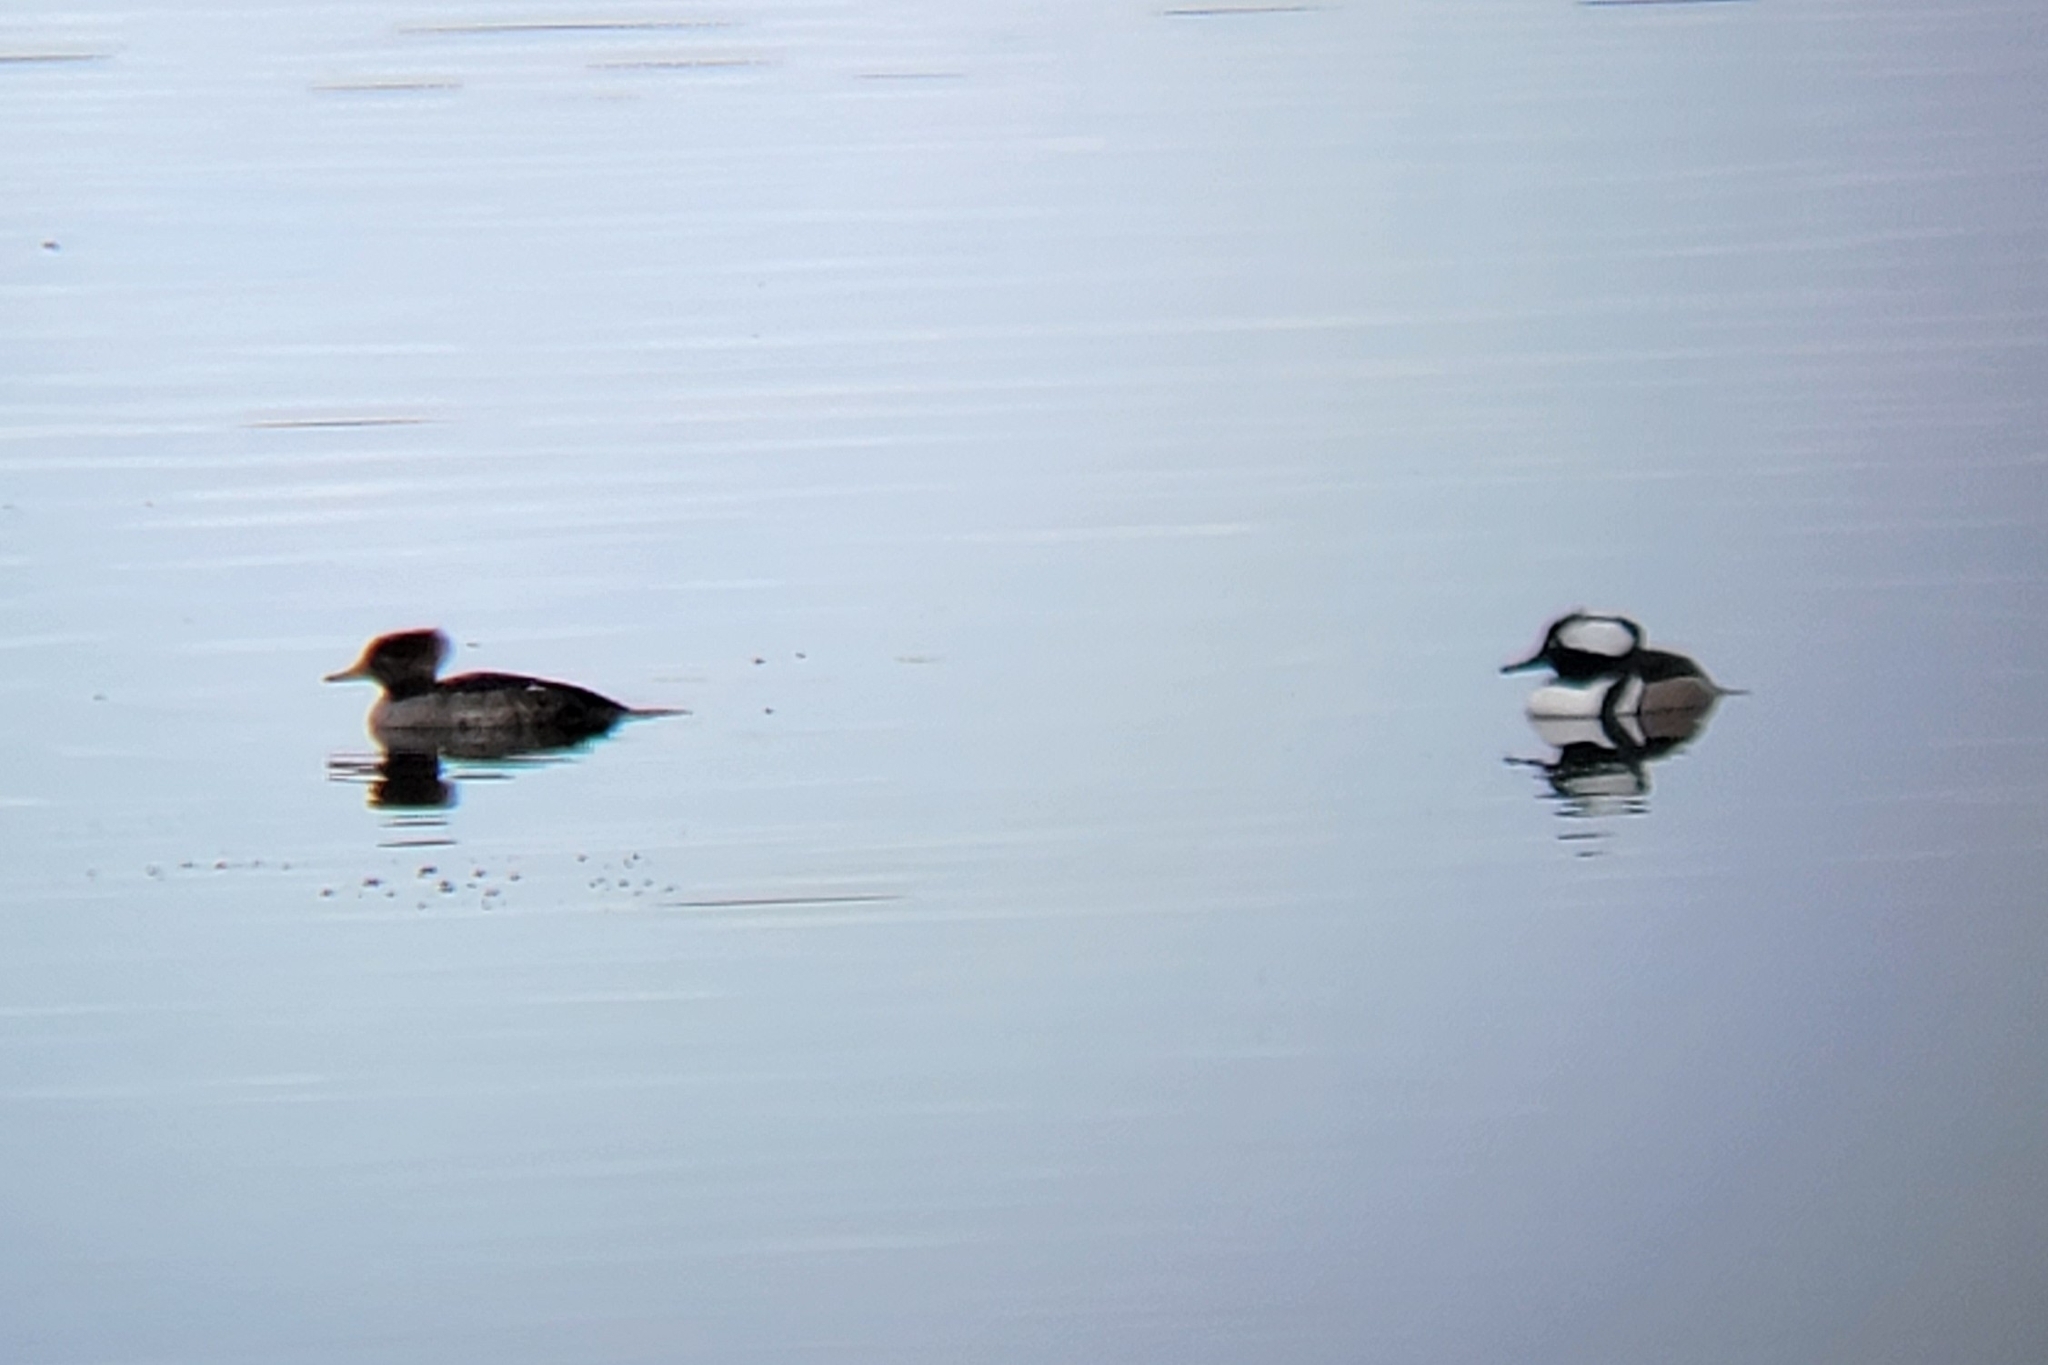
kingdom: Animalia
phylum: Chordata
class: Aves
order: Anseriformes
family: Anatidae
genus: Lophodytes
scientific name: Lophodytes cucullatus
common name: Hooded merganser
